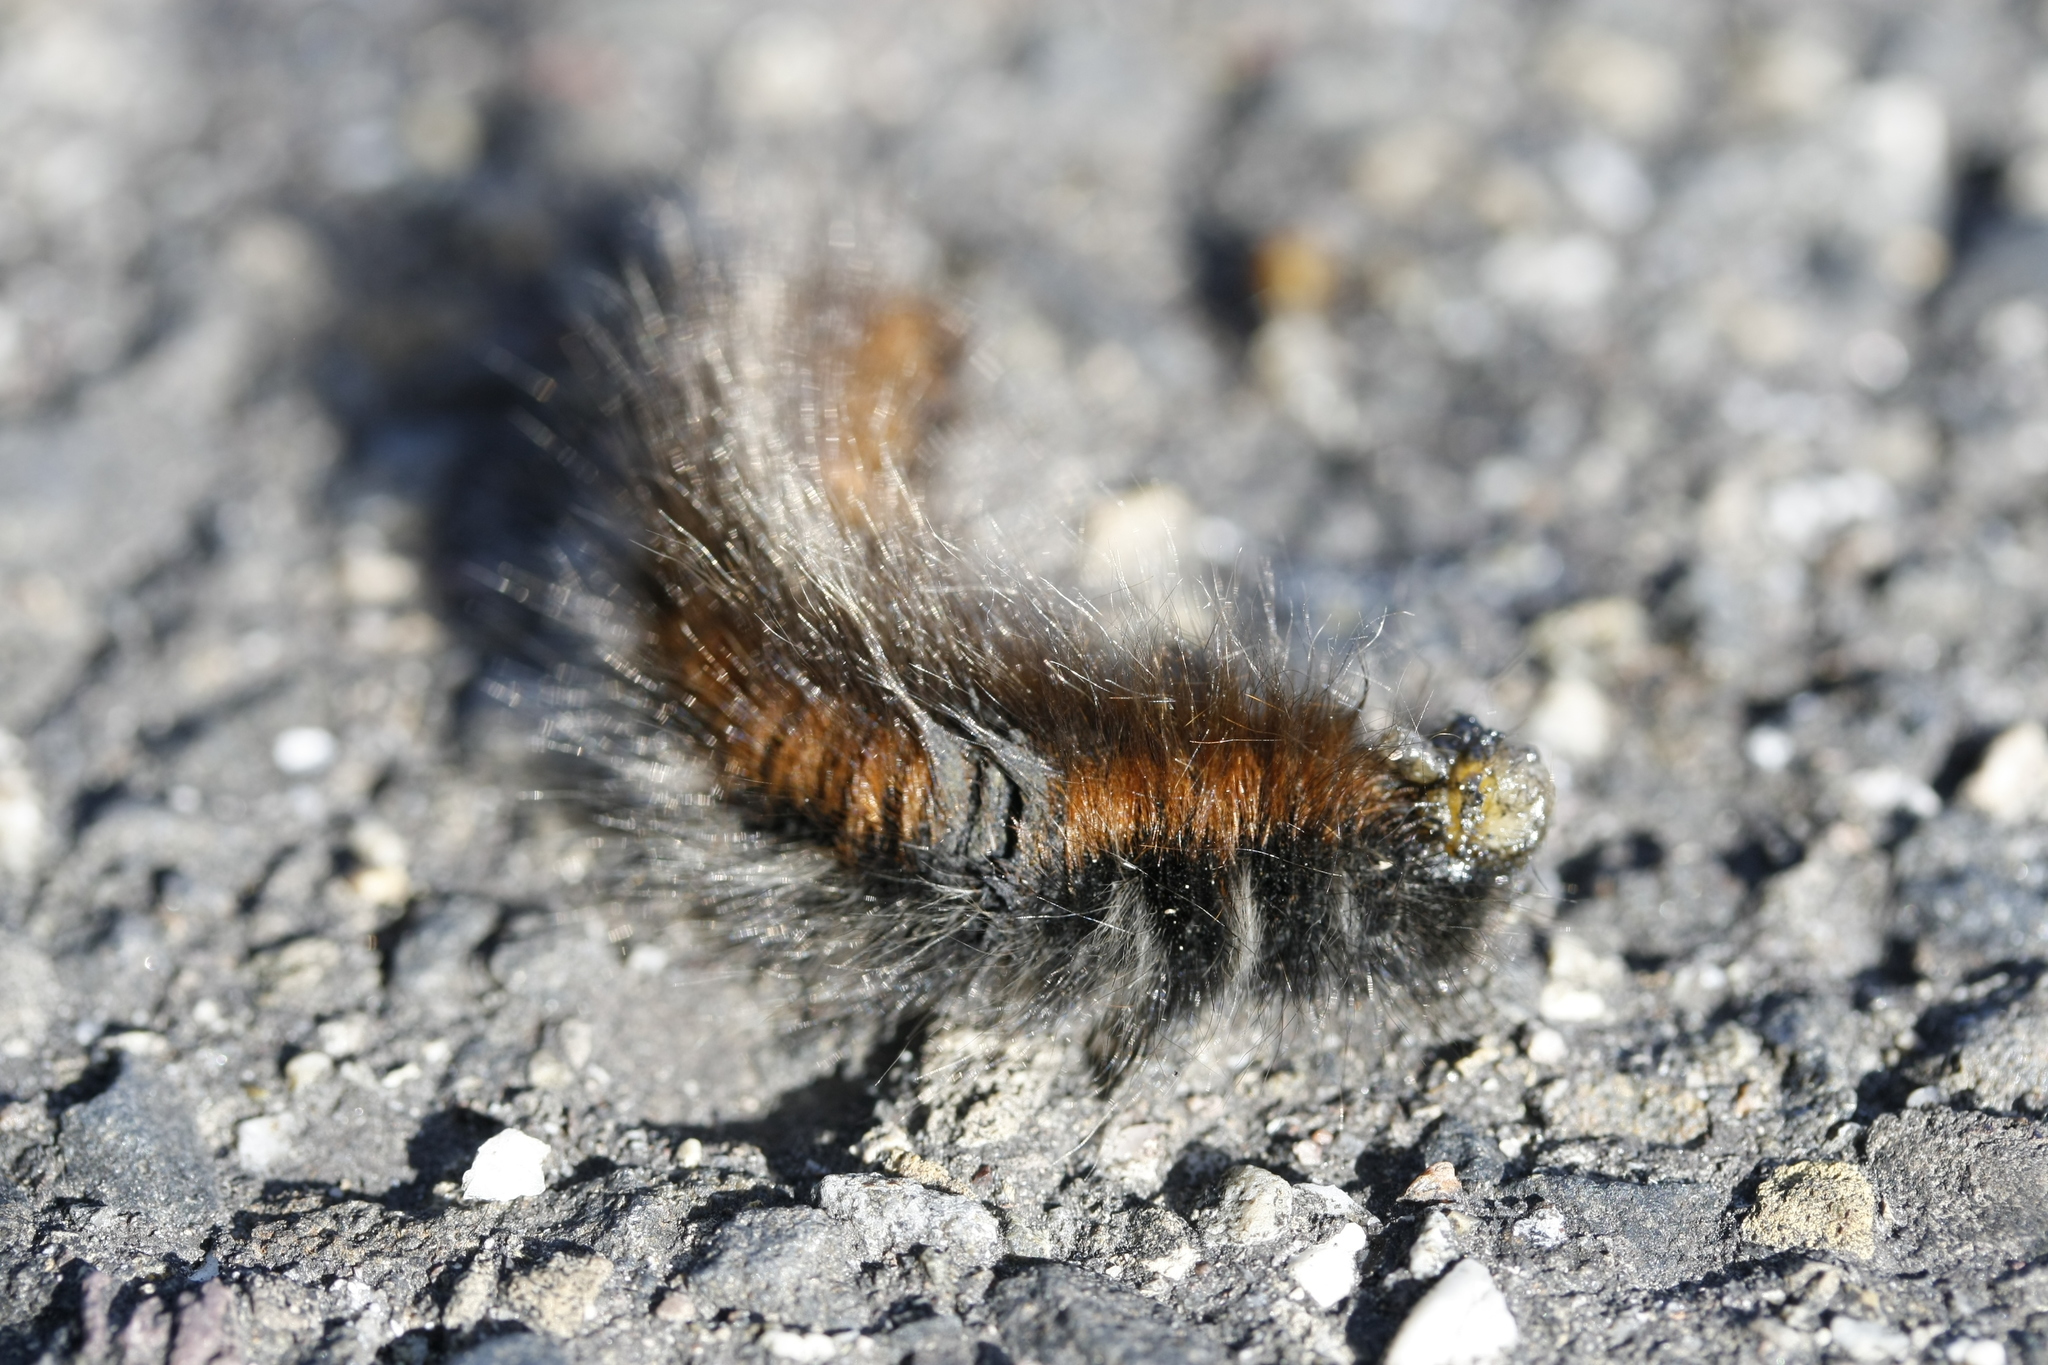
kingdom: Animalia
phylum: Arthropoda
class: Insecta
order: Lepidoptera
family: Lasiocampidae
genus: Macrothylacia
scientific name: Macrothylacia rubi
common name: Fox moth
